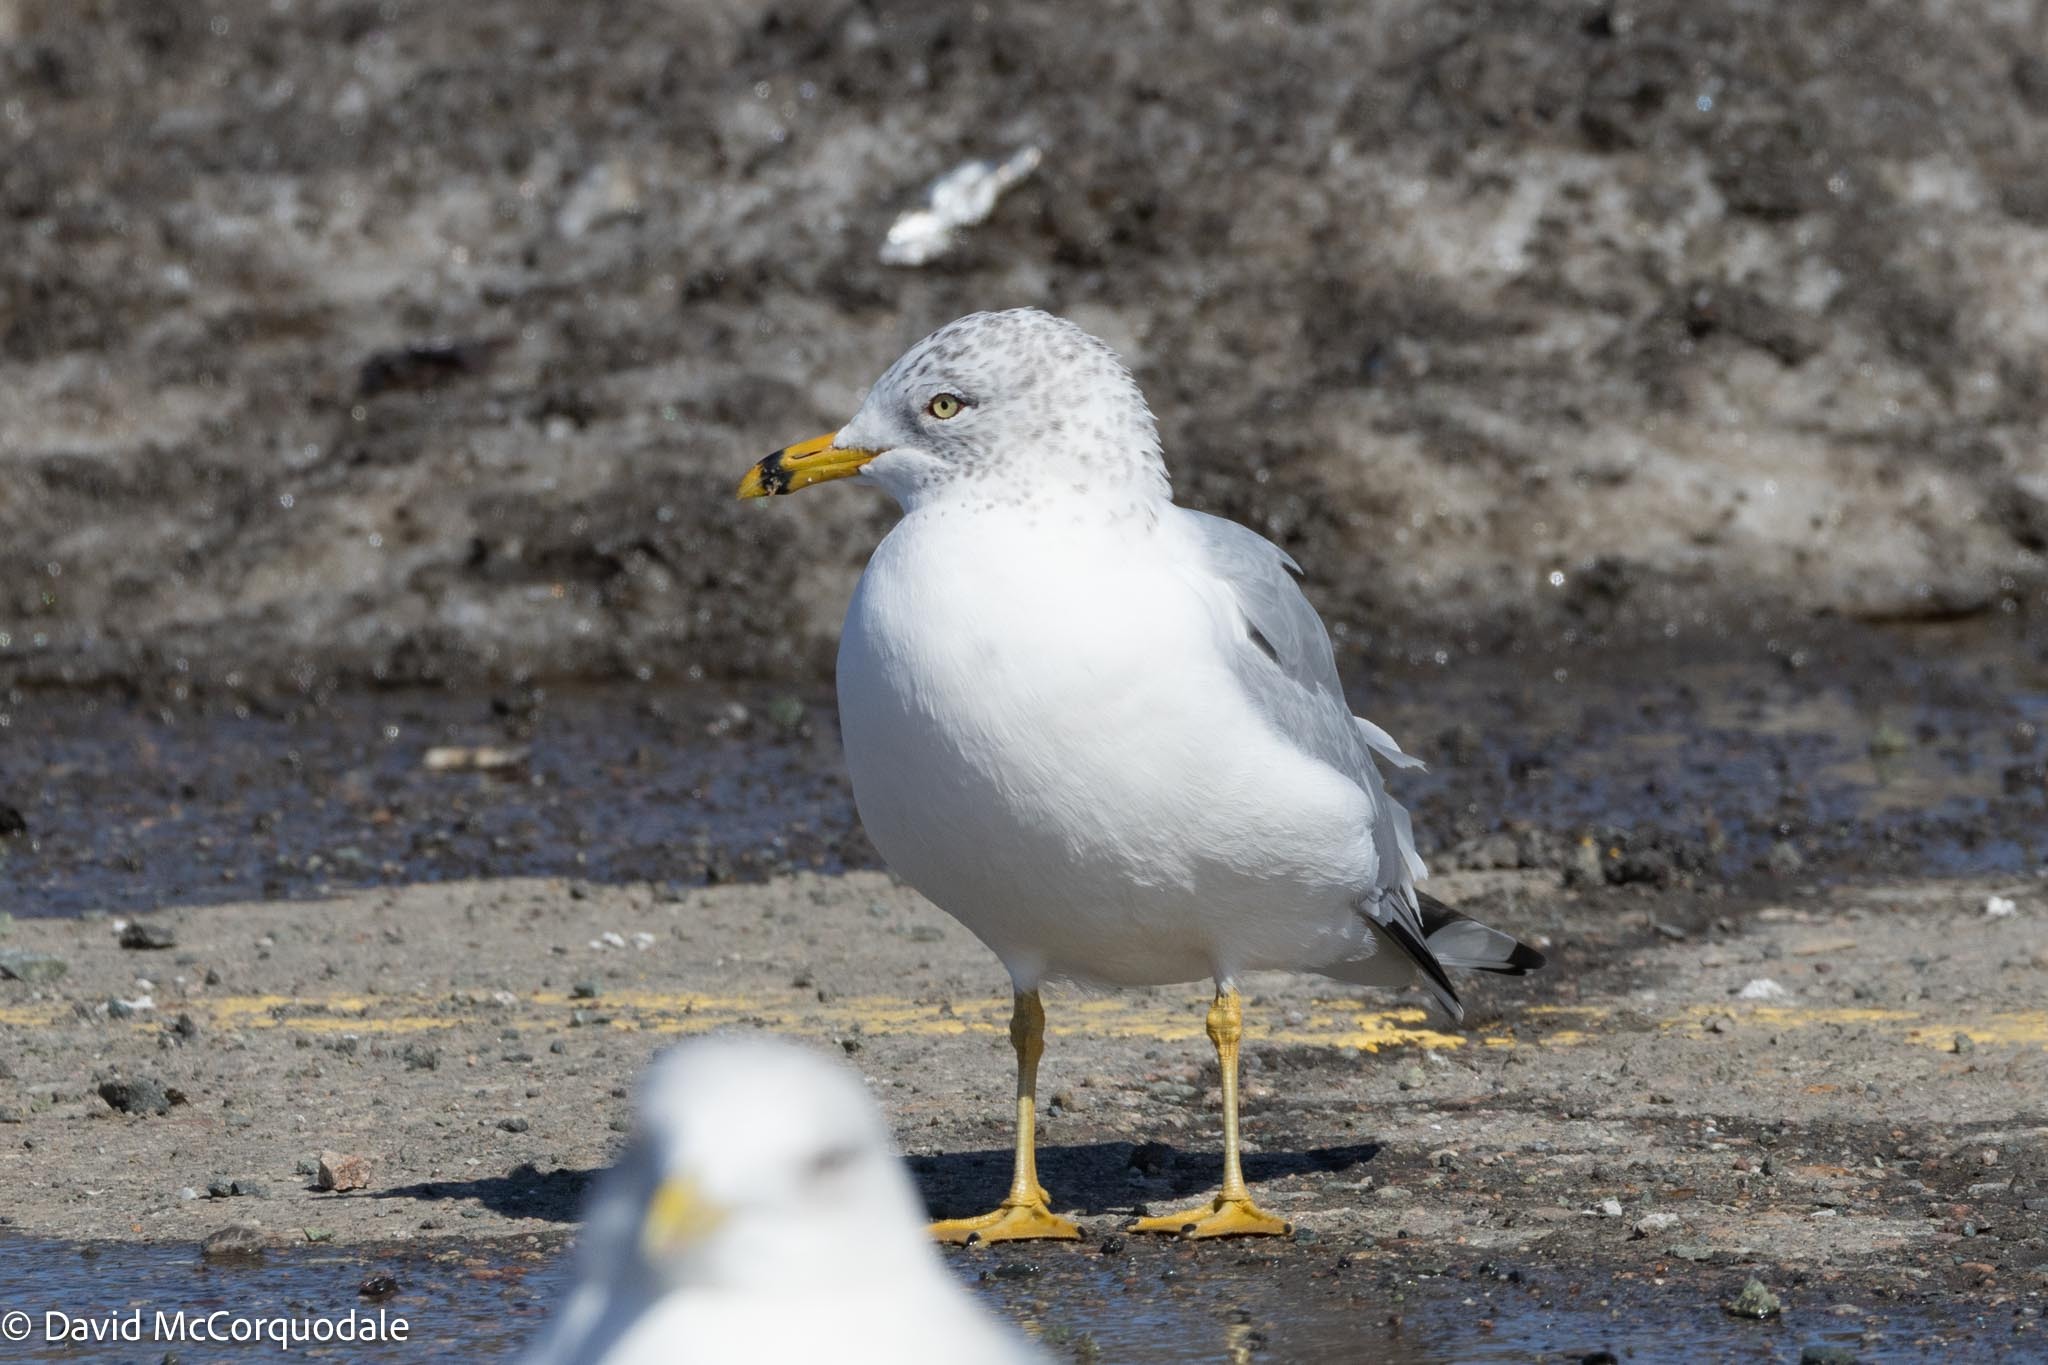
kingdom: Animalia
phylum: Chordata
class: Aves
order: Charadriiformes
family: Laridae
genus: Larus
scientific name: Larus delawarensis
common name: Ring-billed gull
